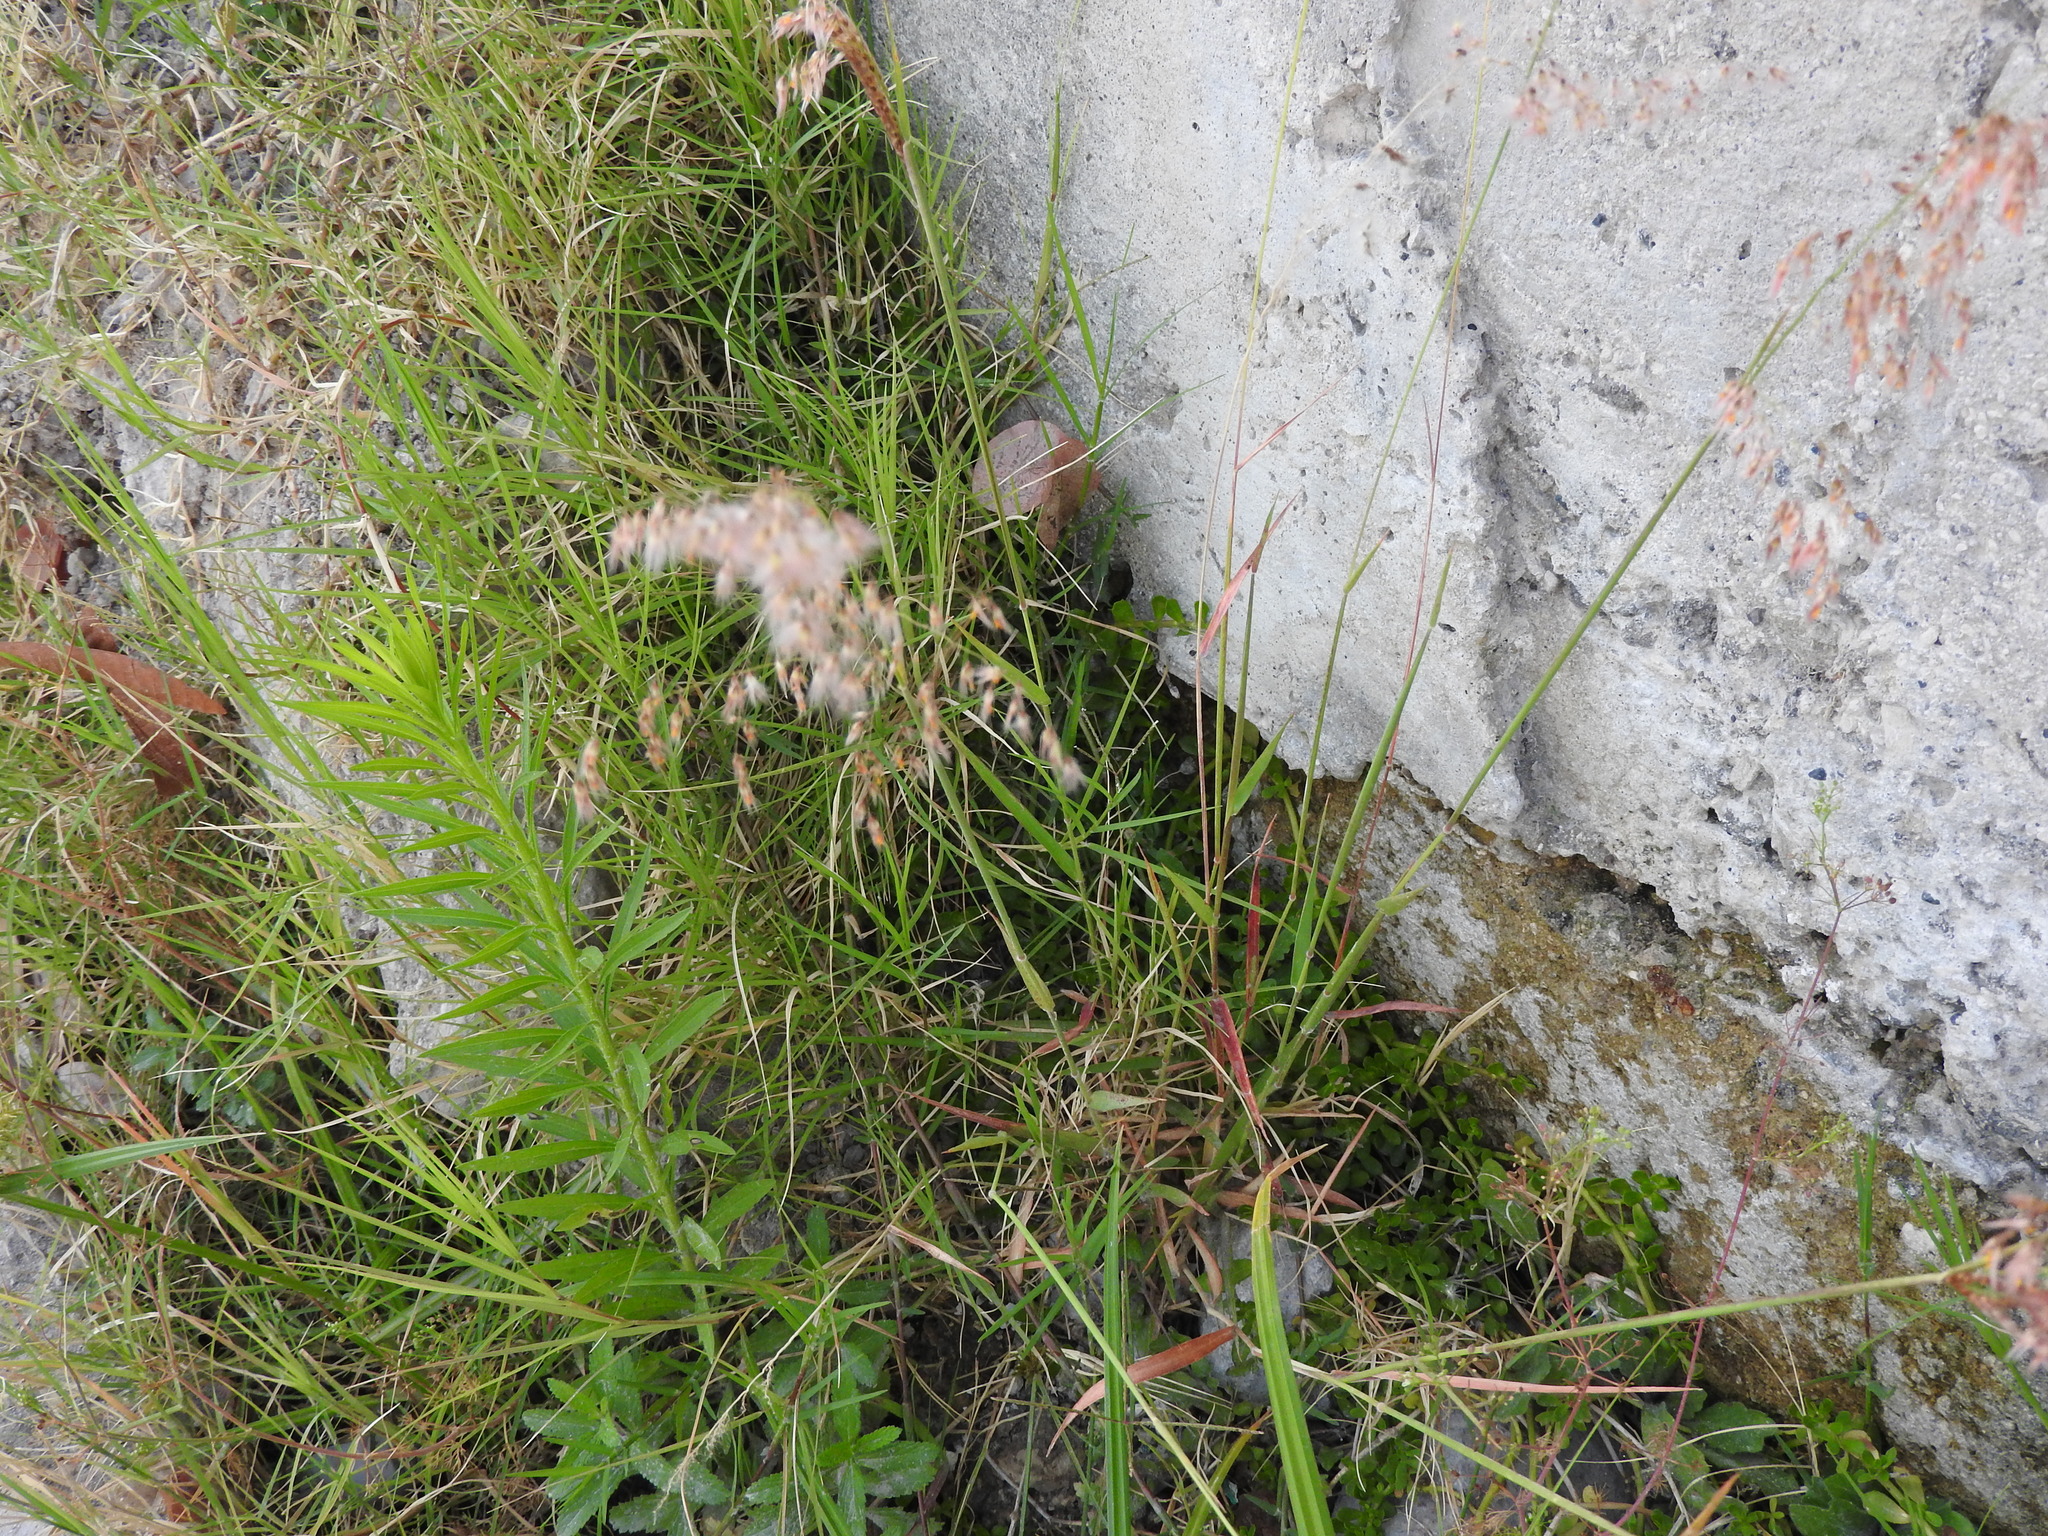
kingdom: Plantae
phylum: Tracheophyta
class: Liliopsida
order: Poales
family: Poaceae
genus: Melinis
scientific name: Melinis repens
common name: Rose natal grass
